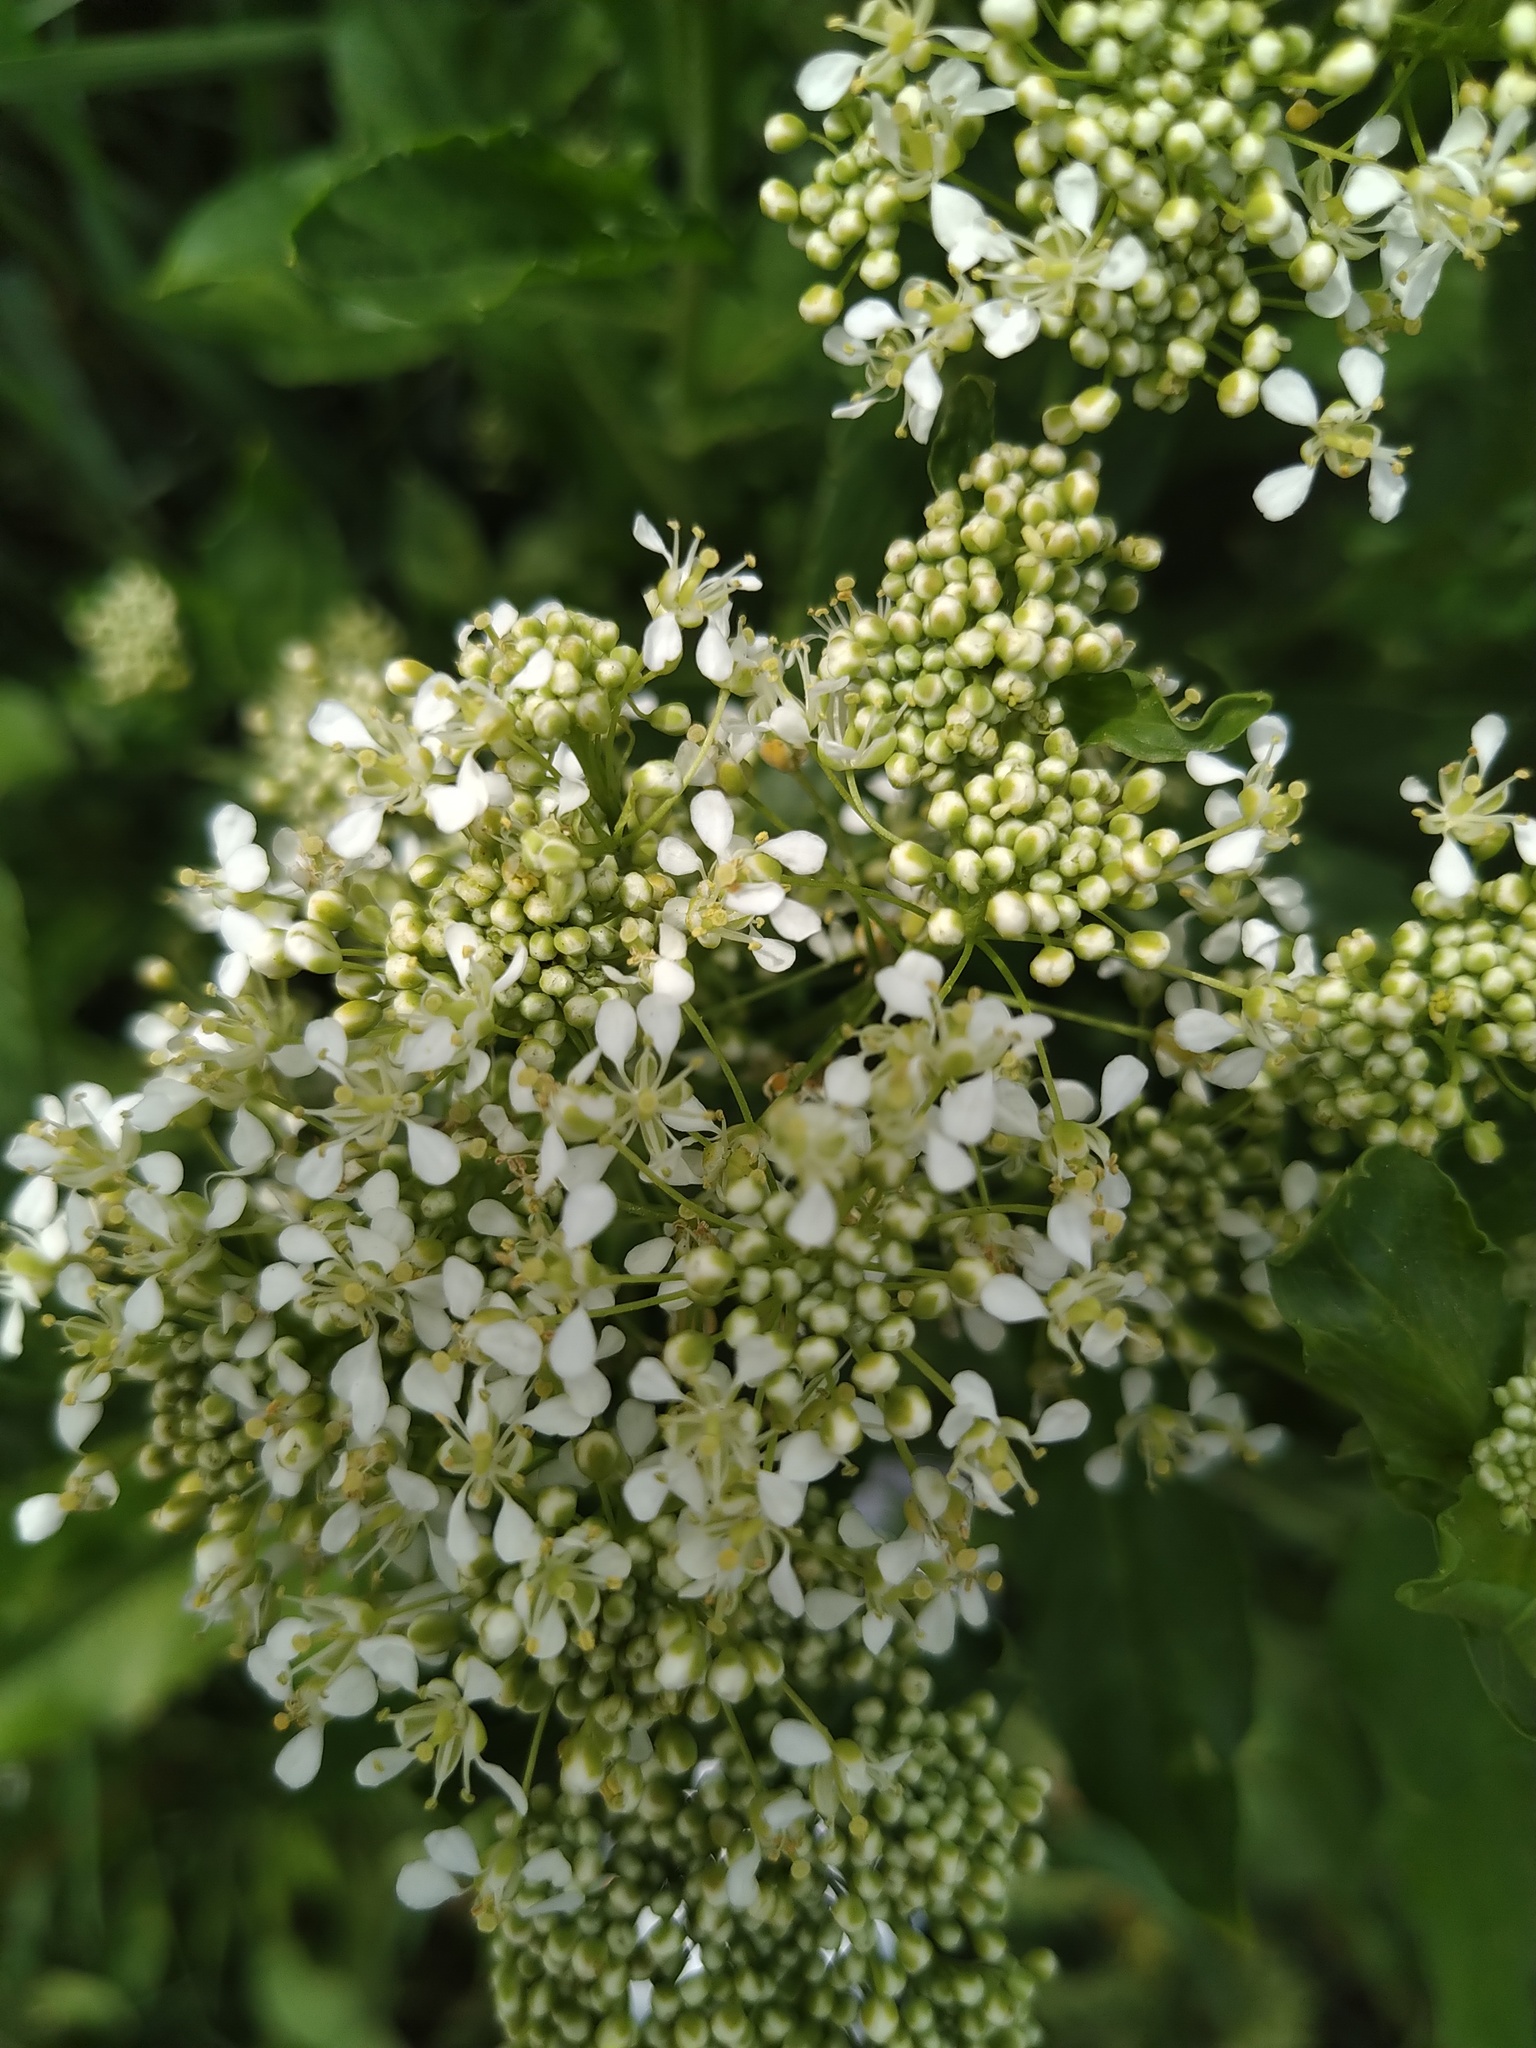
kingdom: Plantae
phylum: Tracheophyta
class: Magnoliopsida
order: Brassicales
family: Brassicaceae
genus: Lepidium
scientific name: Lepidium draba
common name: Hoary cress
